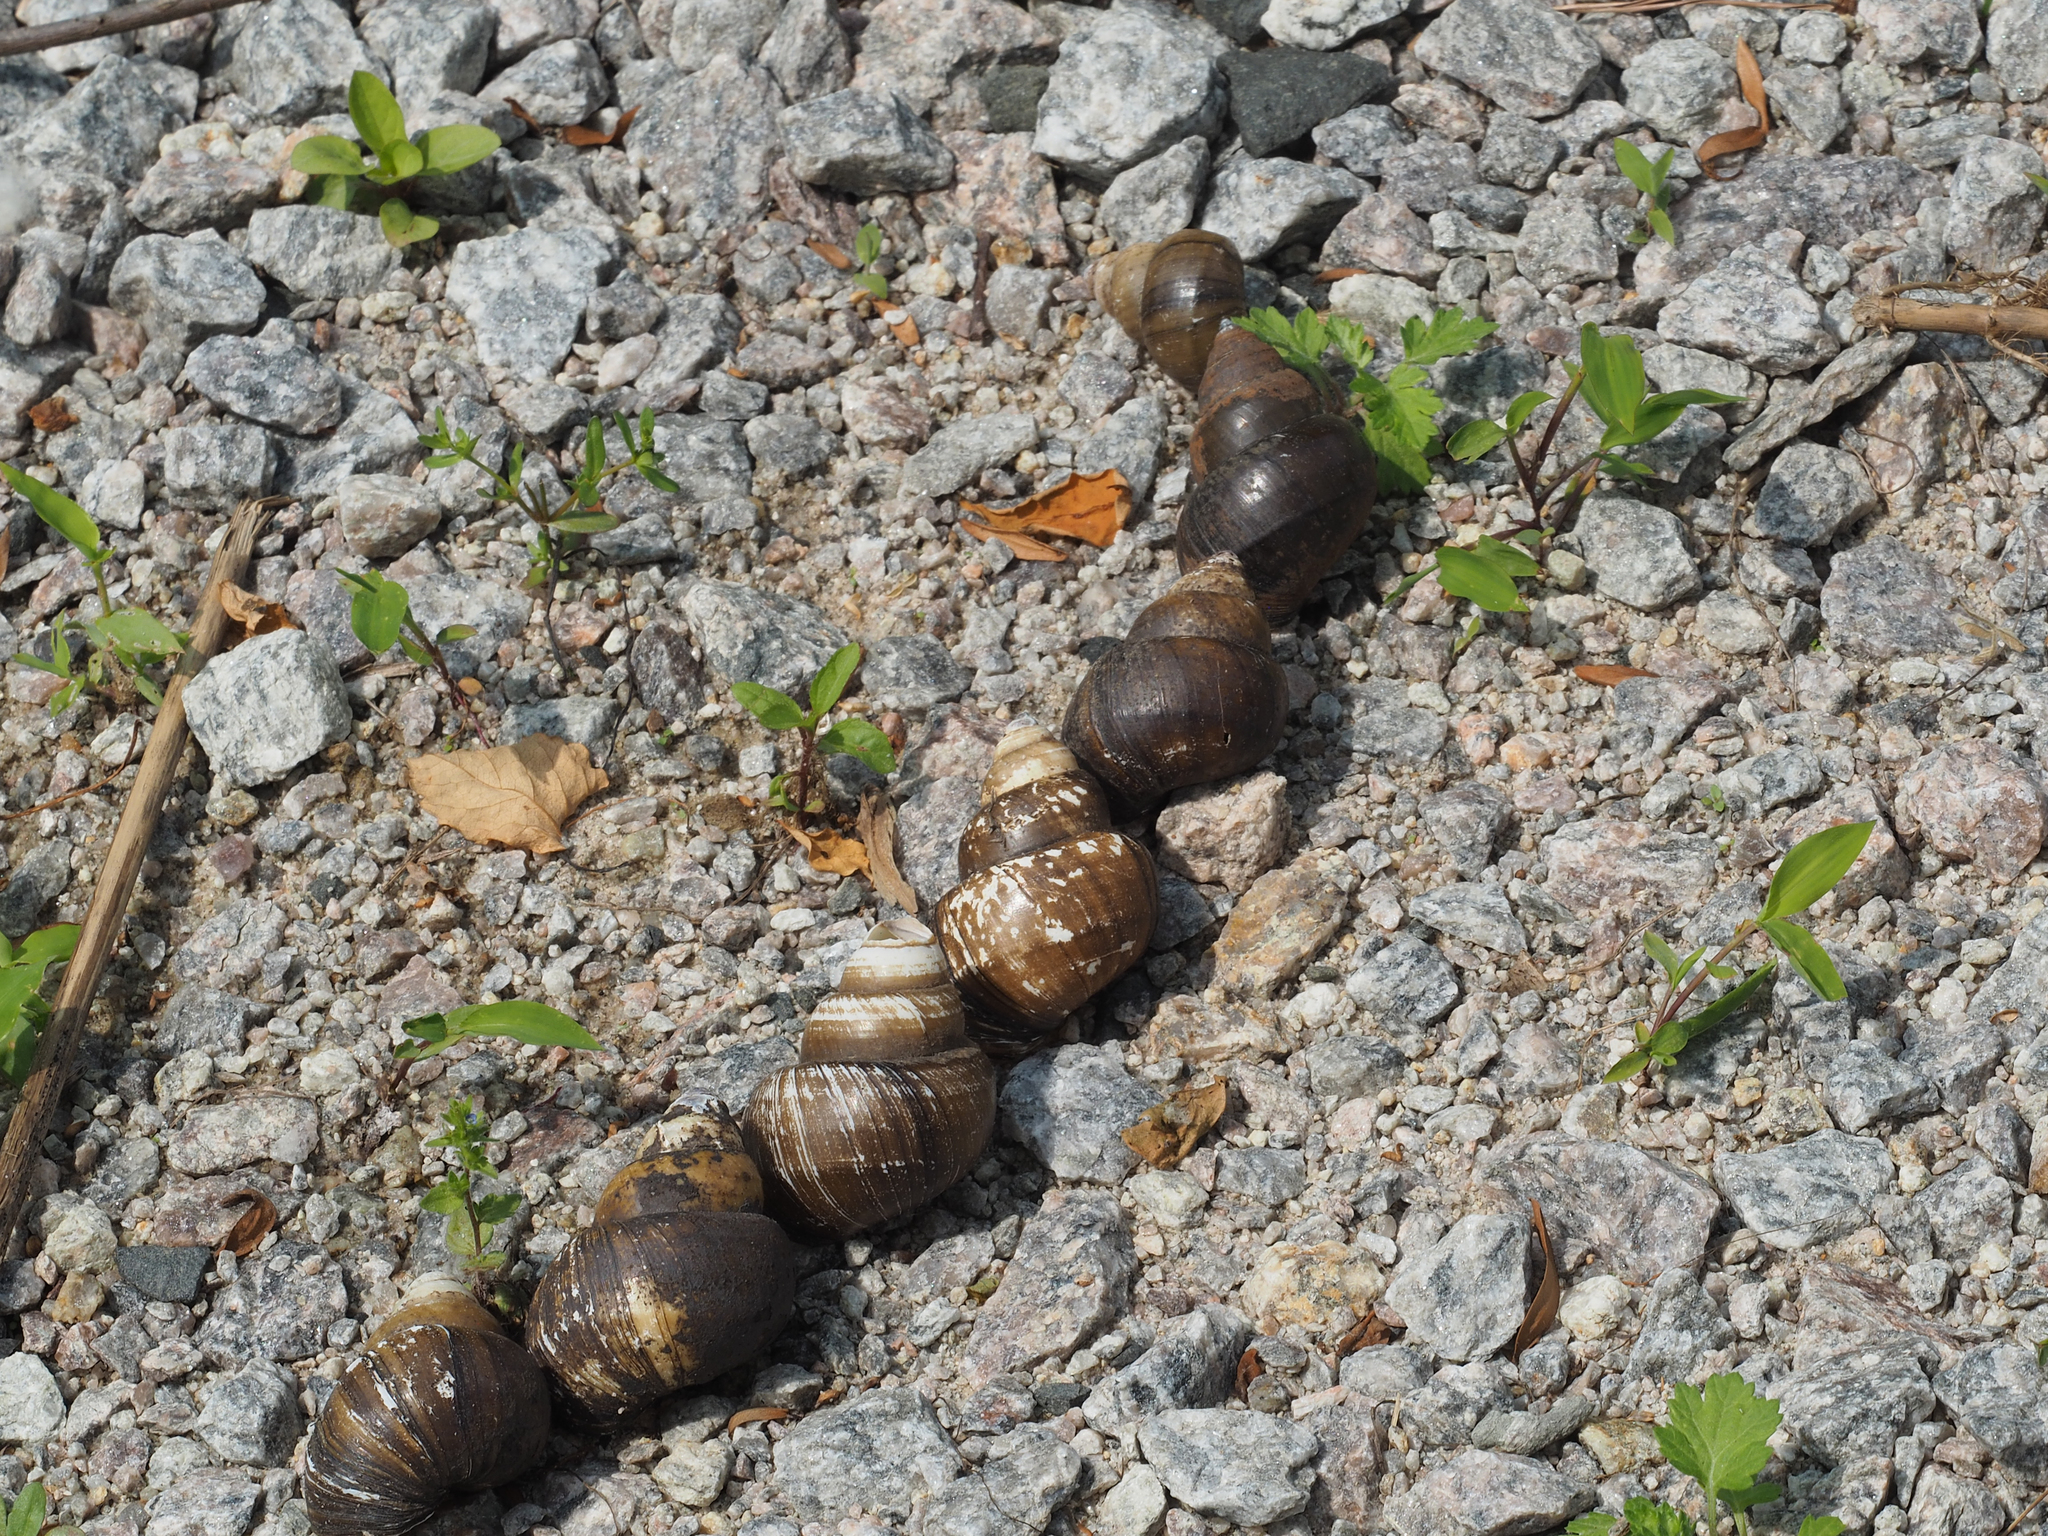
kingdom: Animalia
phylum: Mollusca
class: Gastropoda
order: Architaenioglossa
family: Viviparidae
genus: Cipangopaludina
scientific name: Cipangopaludina chinensis
